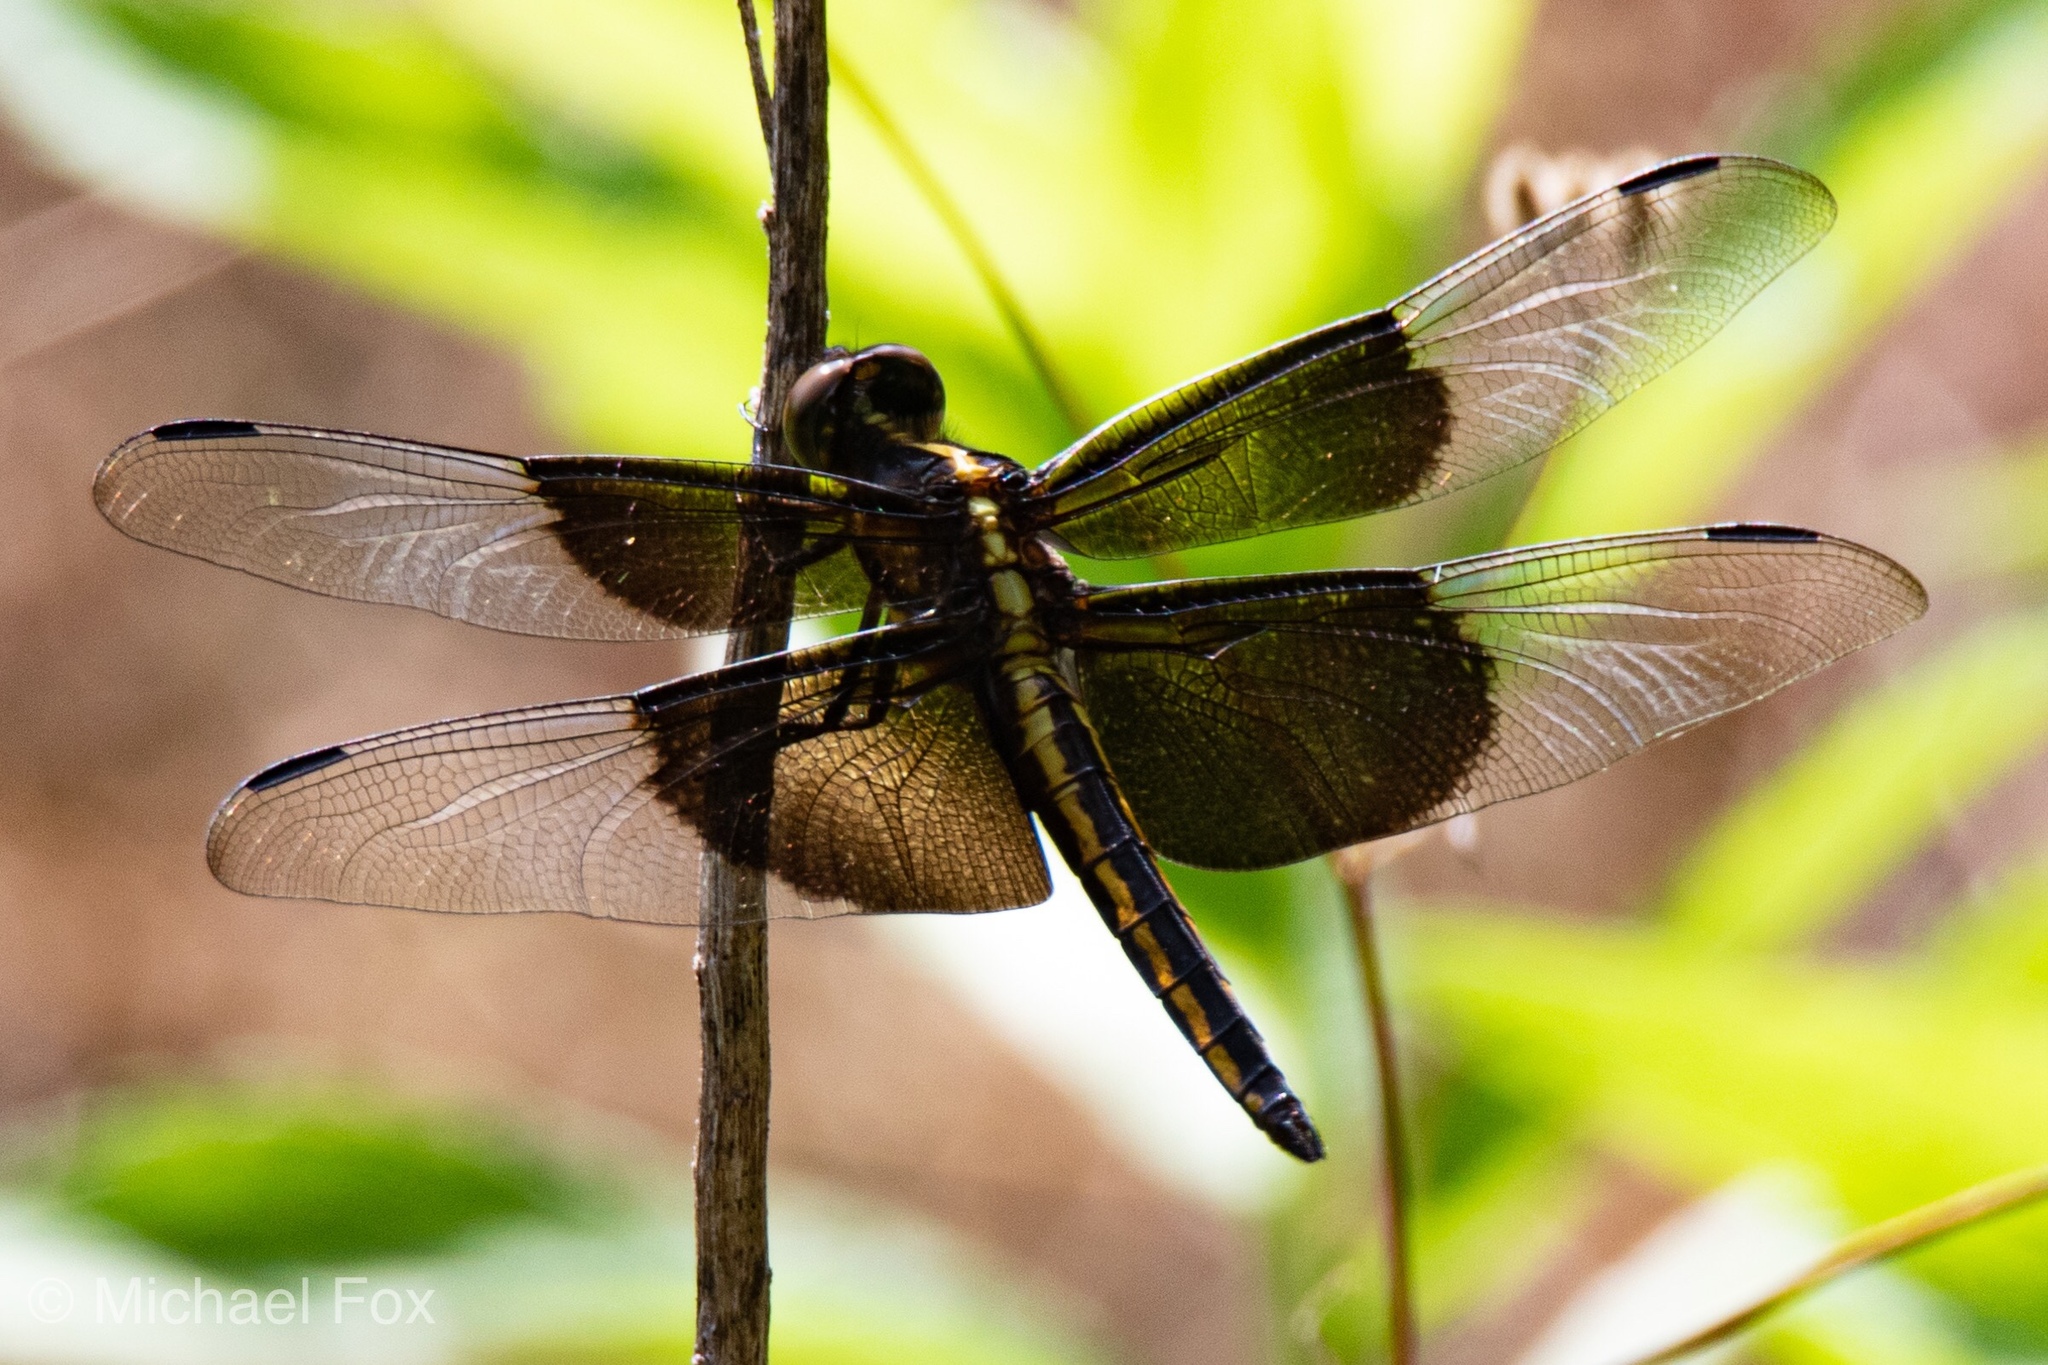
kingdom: Animalia
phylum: Arthropoda
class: Insecta
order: Odonata
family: Libellulidae
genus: Libellula
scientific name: Libellula luctuosa
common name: Widow skimmer
